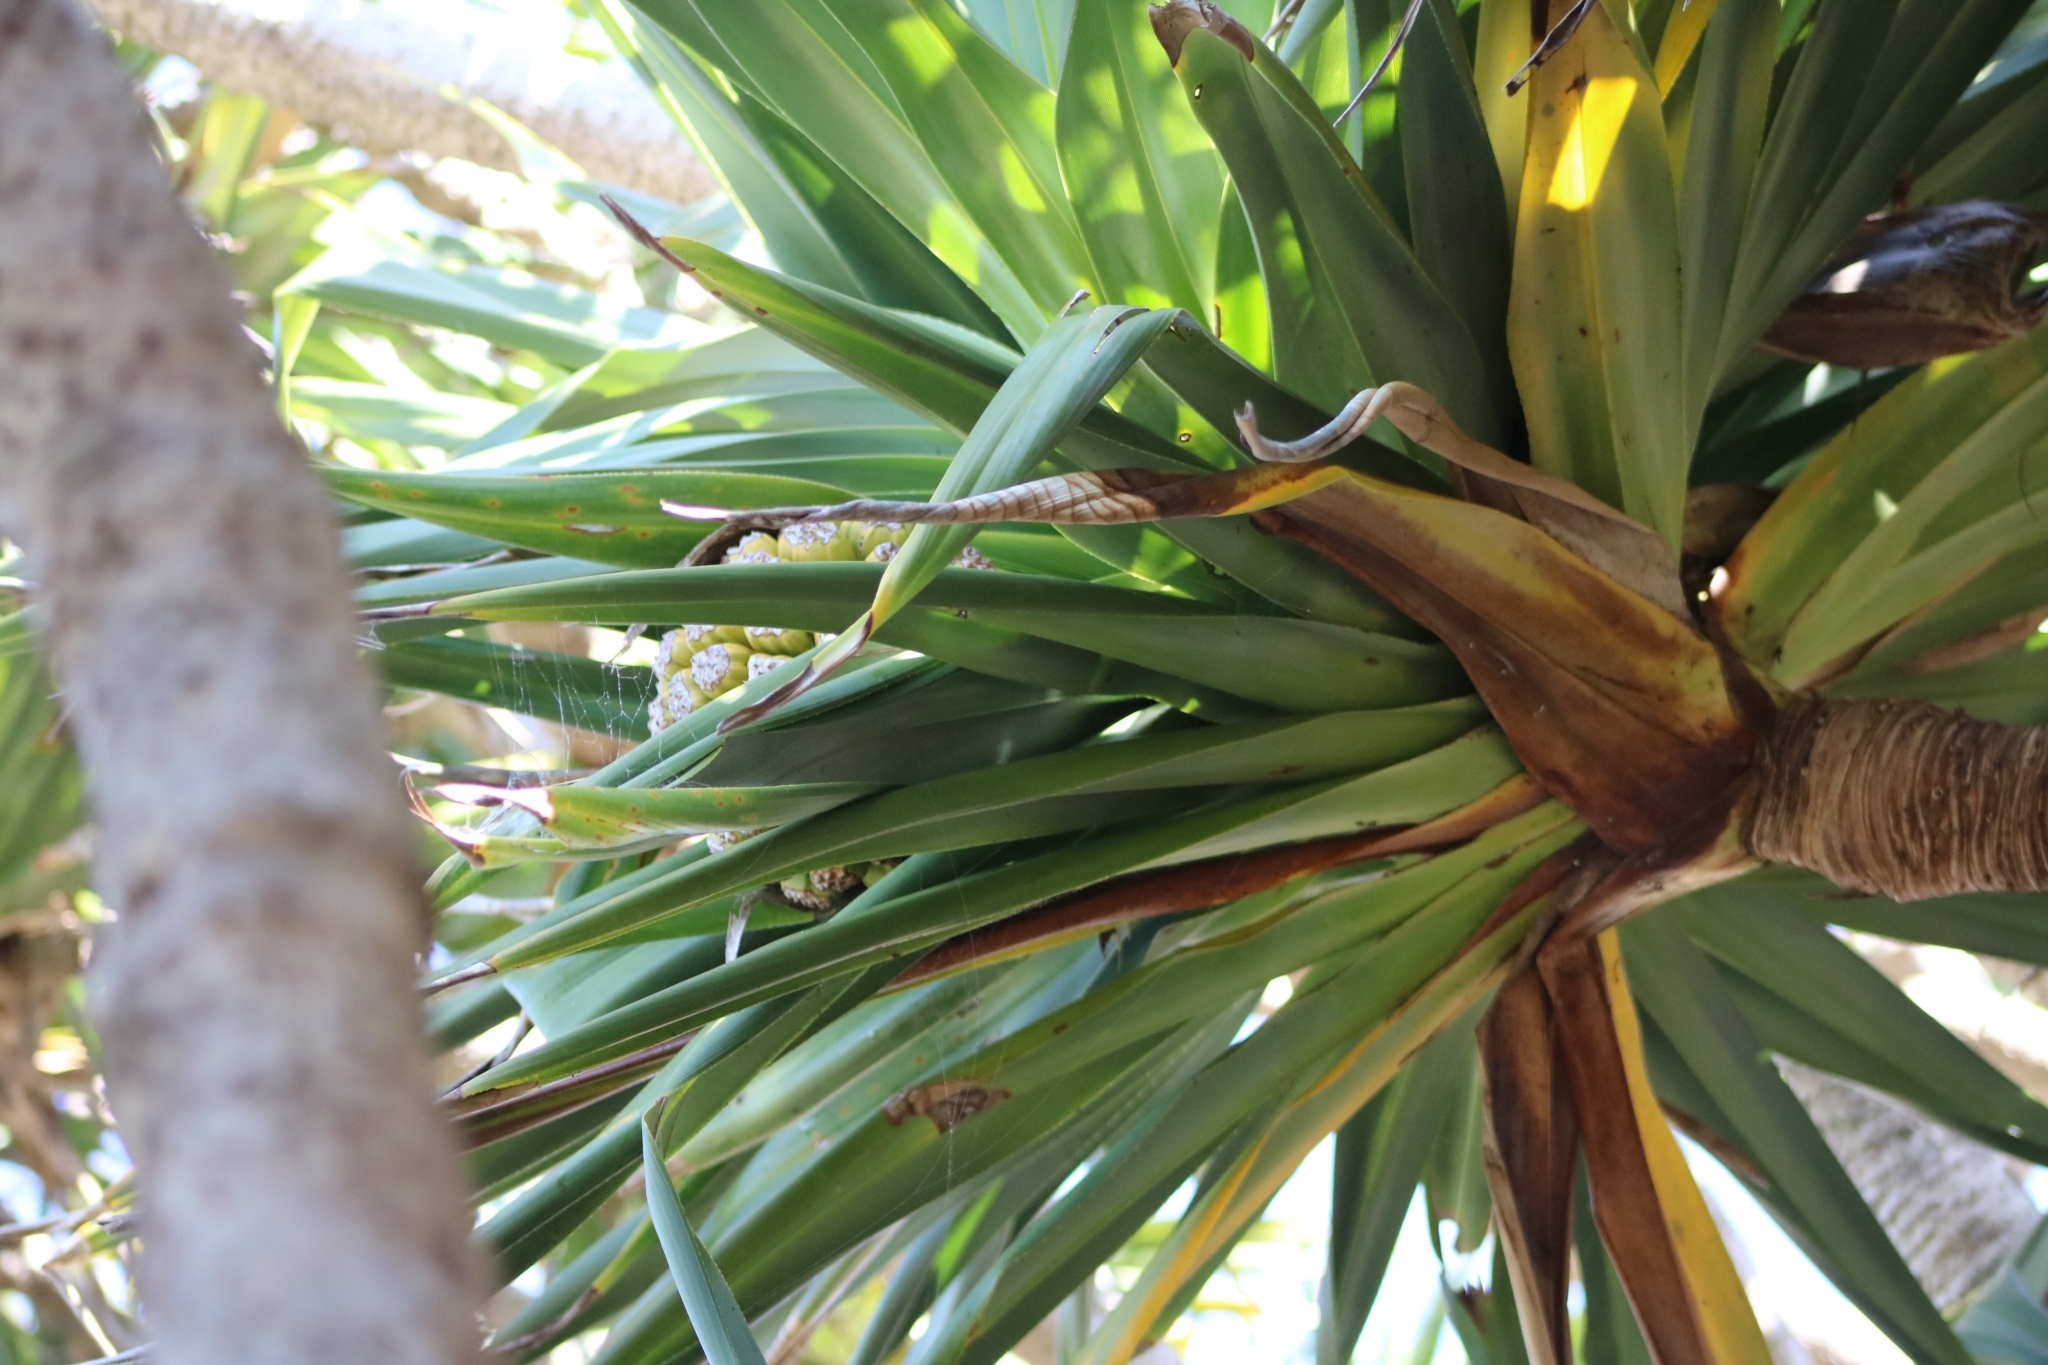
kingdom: Plantae
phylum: Tracheophyta
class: Liliopsida
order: Pandanales
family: Pandanaceae
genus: Pandanus
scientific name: Pandanus tectorius
